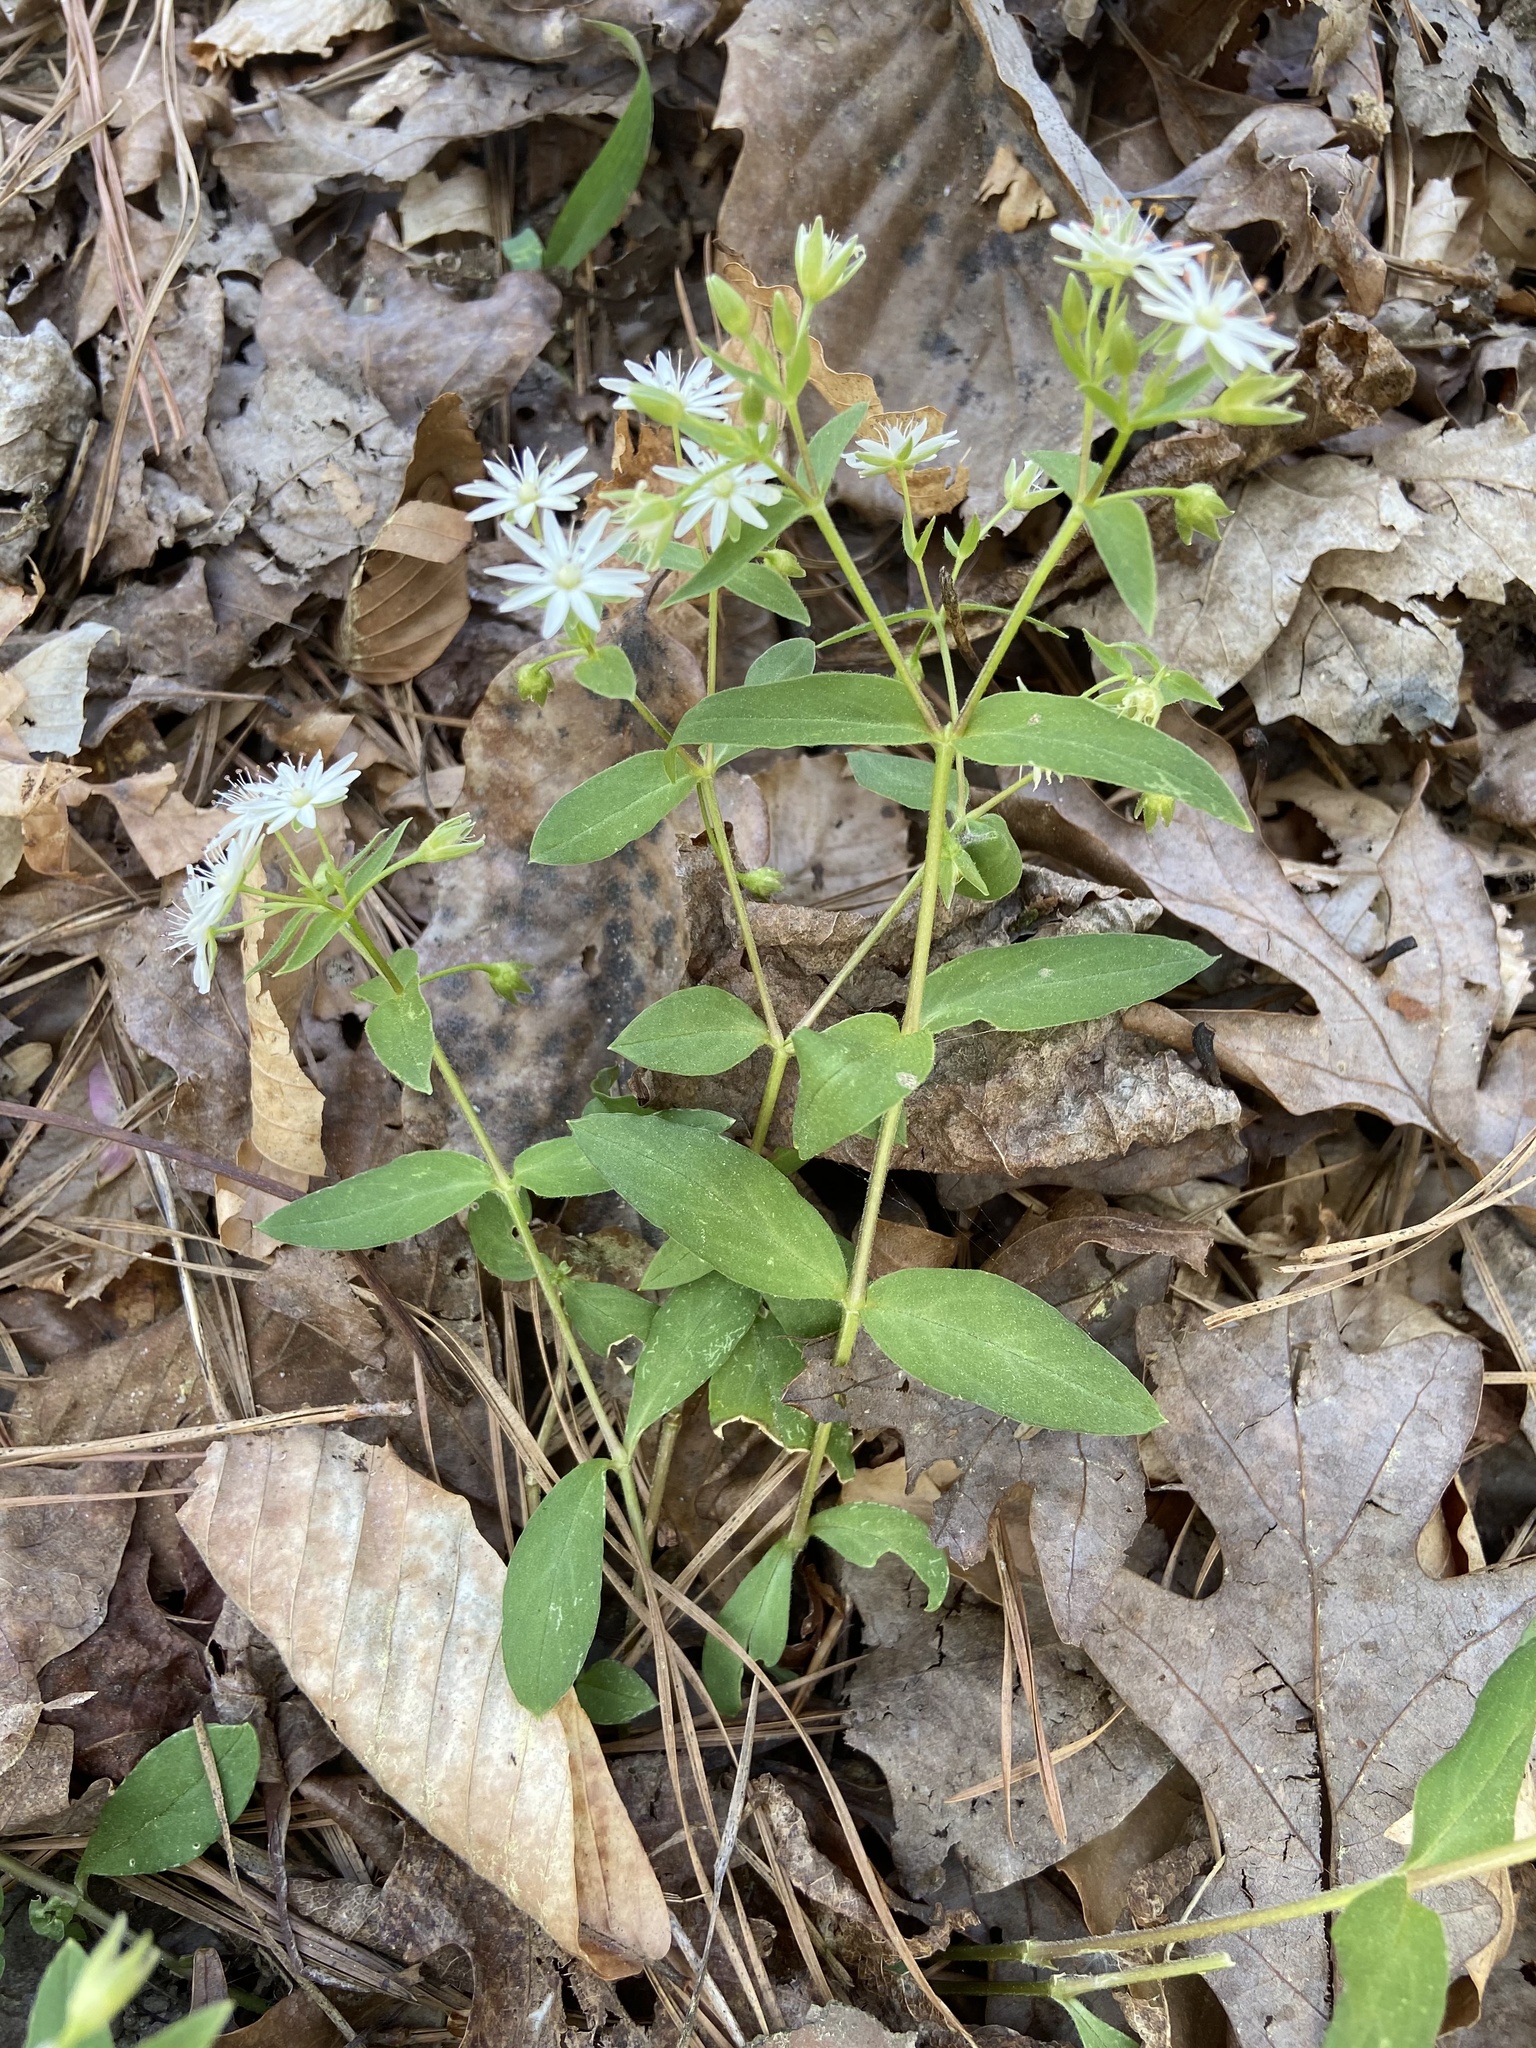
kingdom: Plantae
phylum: Tracheophyta
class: Magnoliopsida
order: Caryophyllales
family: Caryophyllaceae
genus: Stellaria
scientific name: Stellaria pubera
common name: Star chickweed
